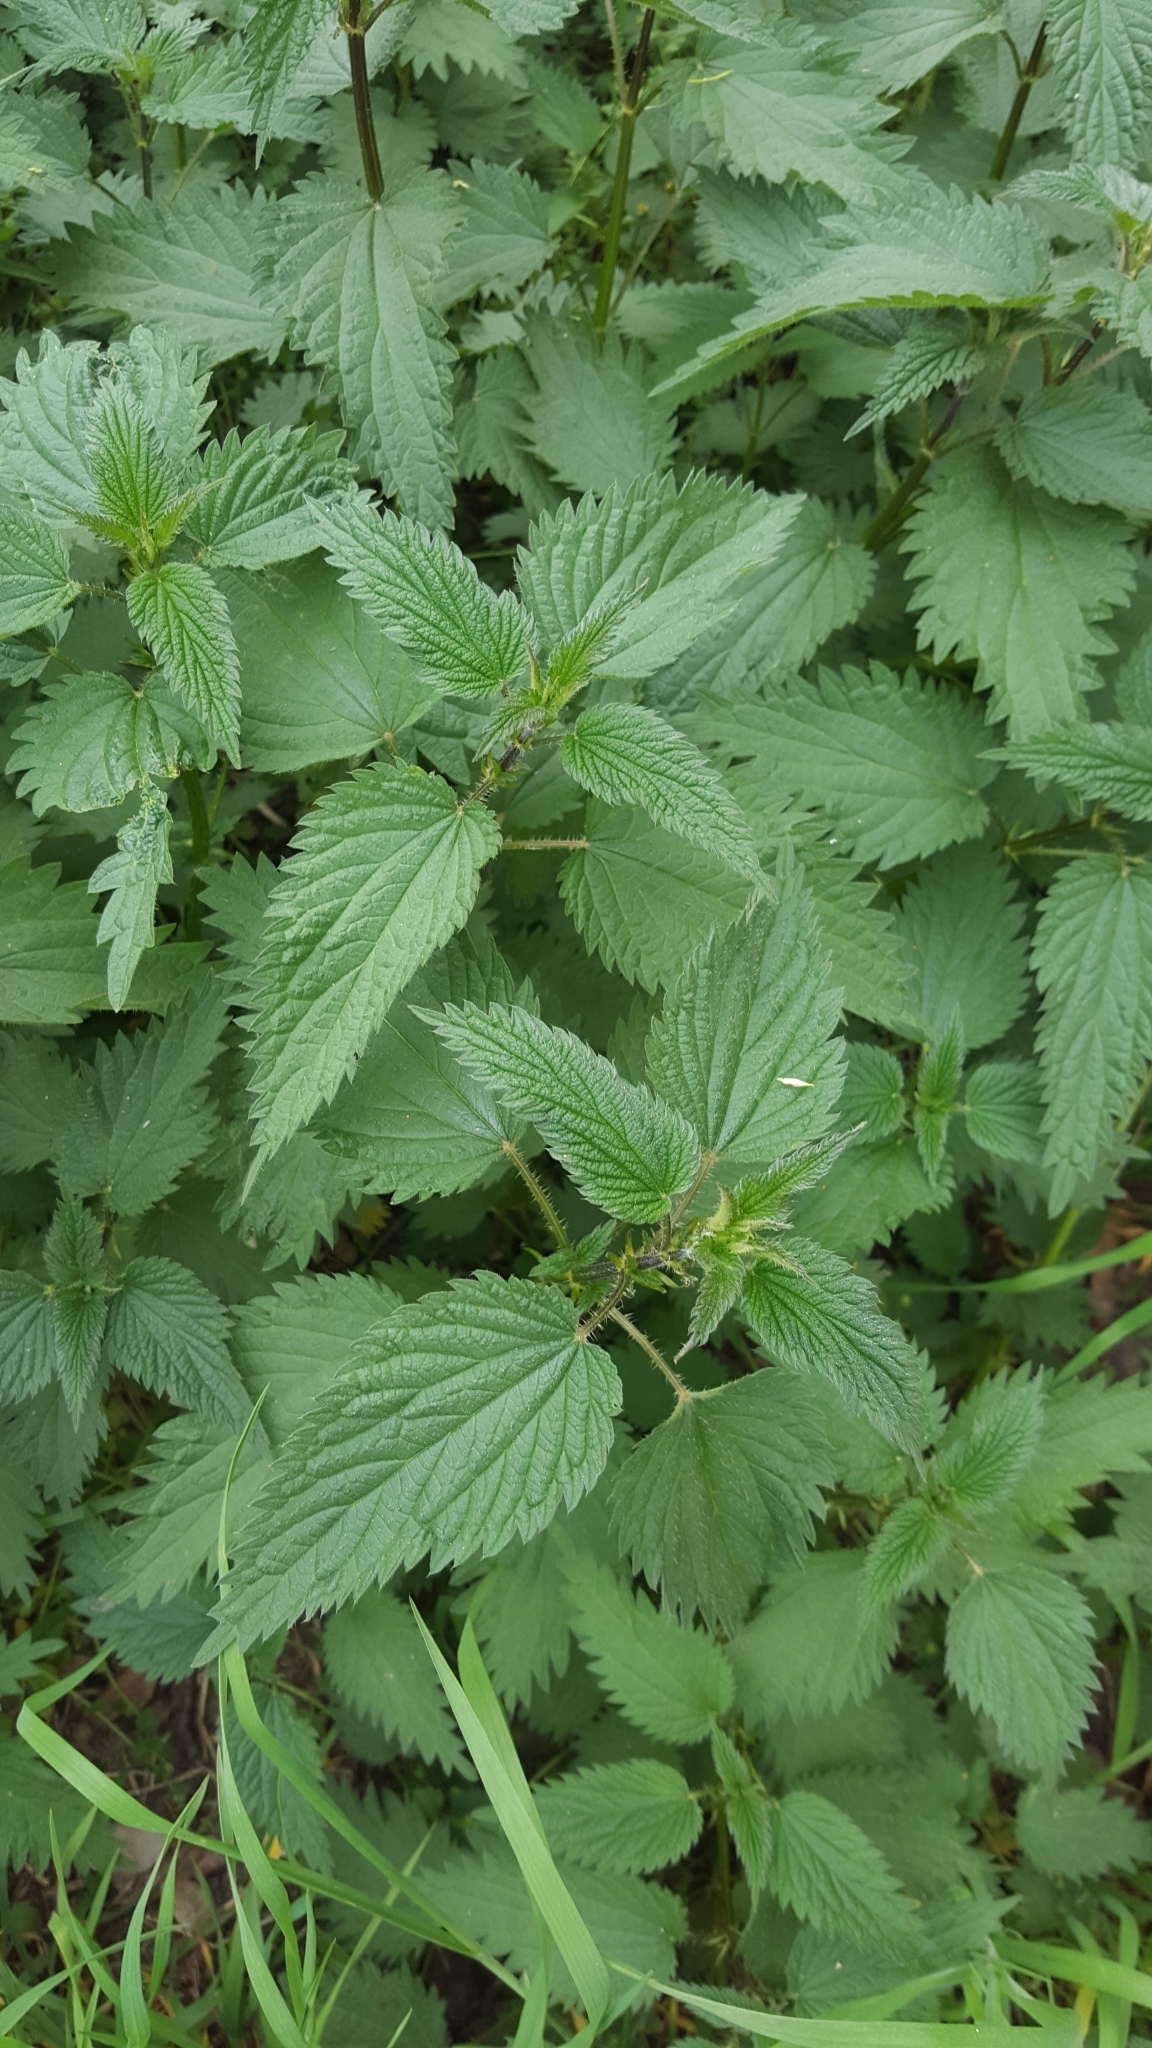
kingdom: Plantae
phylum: Tracheophyta
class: Magnoliopsida
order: Rosales
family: Urticaceae
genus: Urtica
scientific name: Urtica dioica
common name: Common nettle
